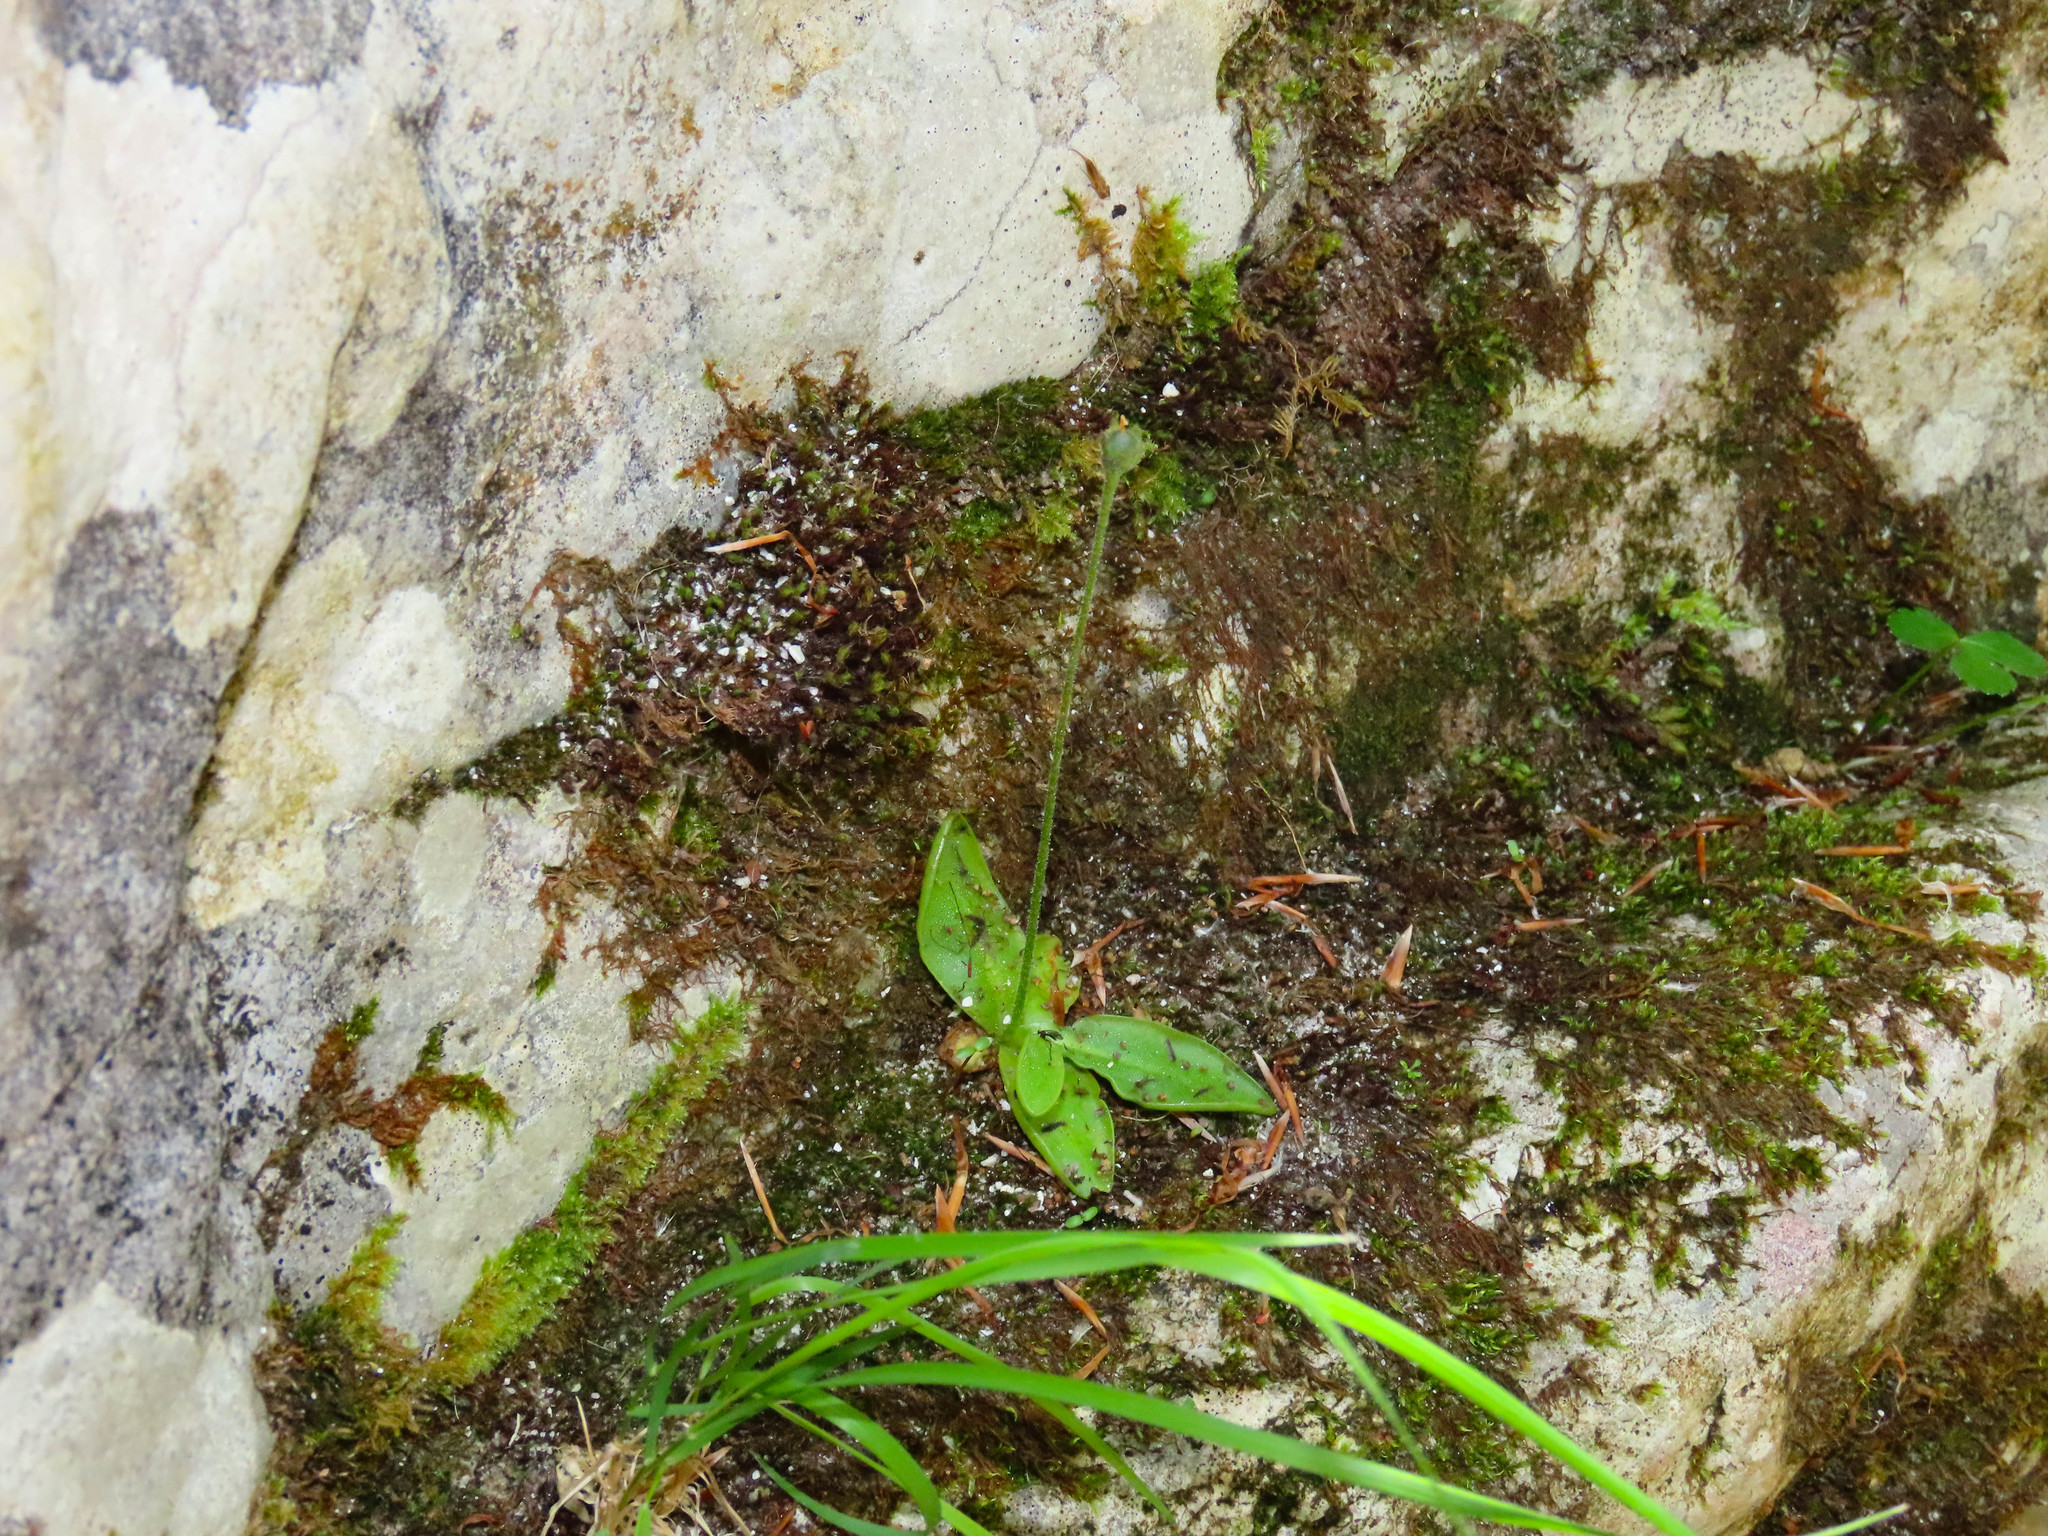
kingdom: Plantae
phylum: Tracheophyta
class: Magnoliopsida
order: Lamiales
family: Lentibulariaceae
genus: Pinguicula
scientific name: Pinguicula vallis-regiae
